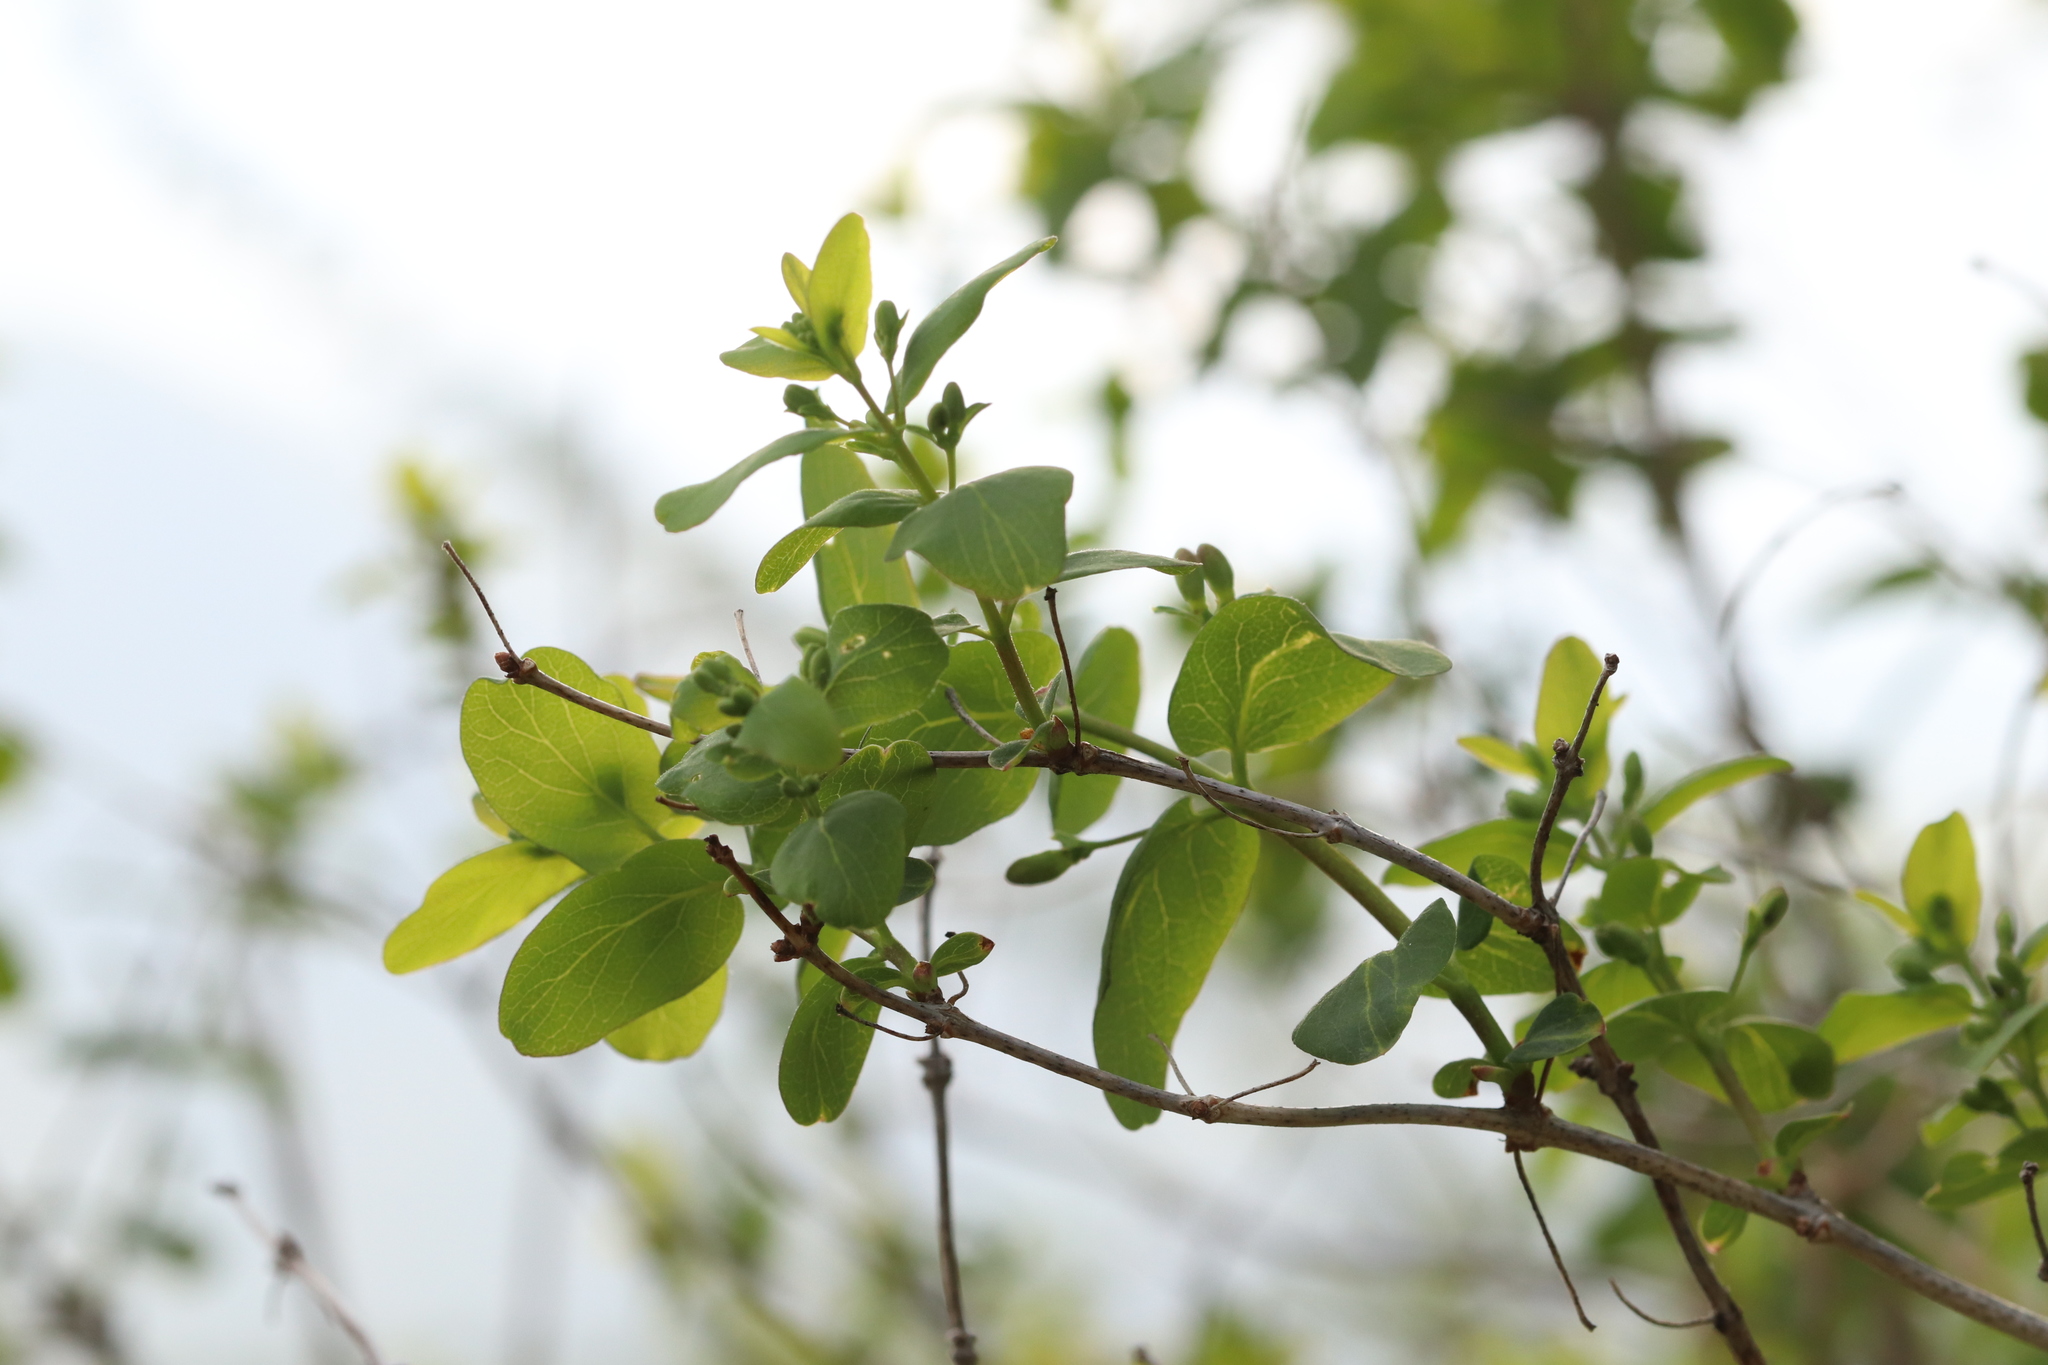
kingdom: Plantae
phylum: Tracheophyta
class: Magnoliopsida
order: Dipsacales
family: Caprifoliaceae
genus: Lonicera
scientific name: Lonicera tatarica
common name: Tatarian honeysuckle
